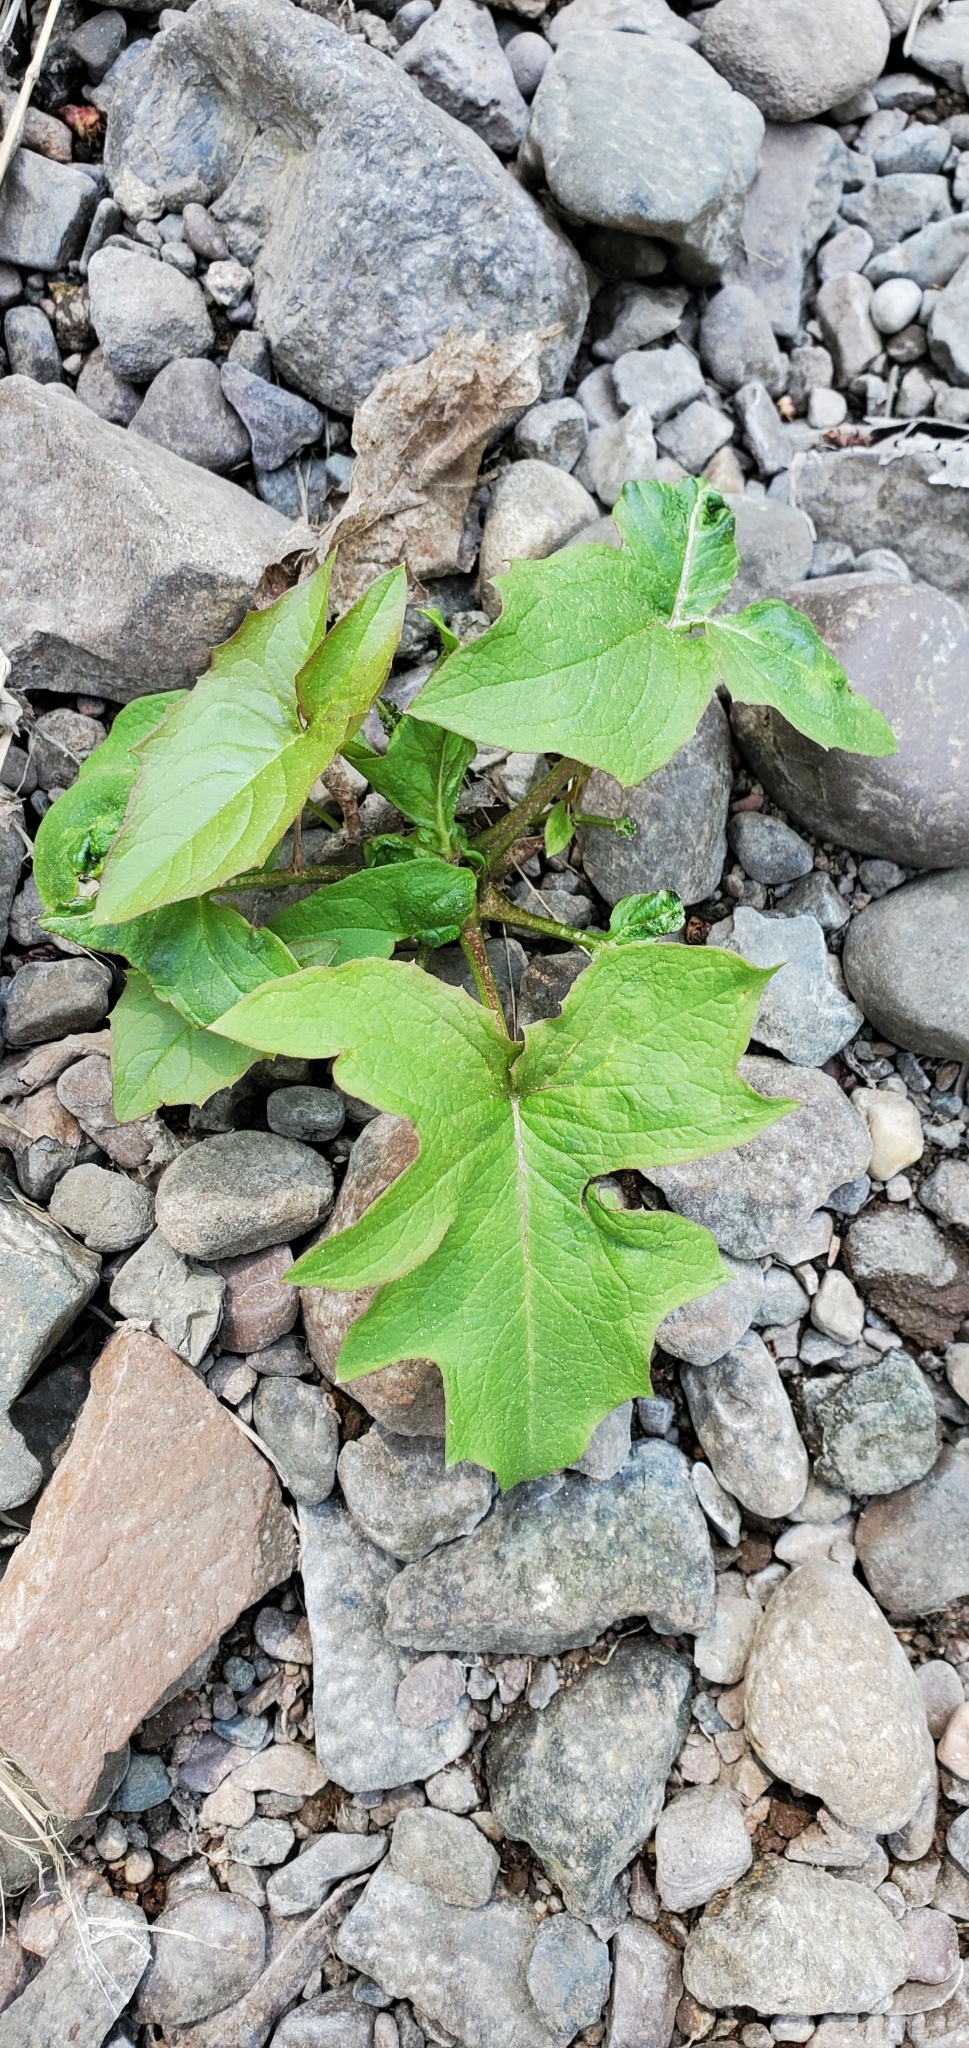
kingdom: Plantae
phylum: Tracheophyta
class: Magnoliopsida
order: Asterales
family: Asteraceae
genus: Nabalus
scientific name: Nabalus albus
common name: White rattlesnakeroot
